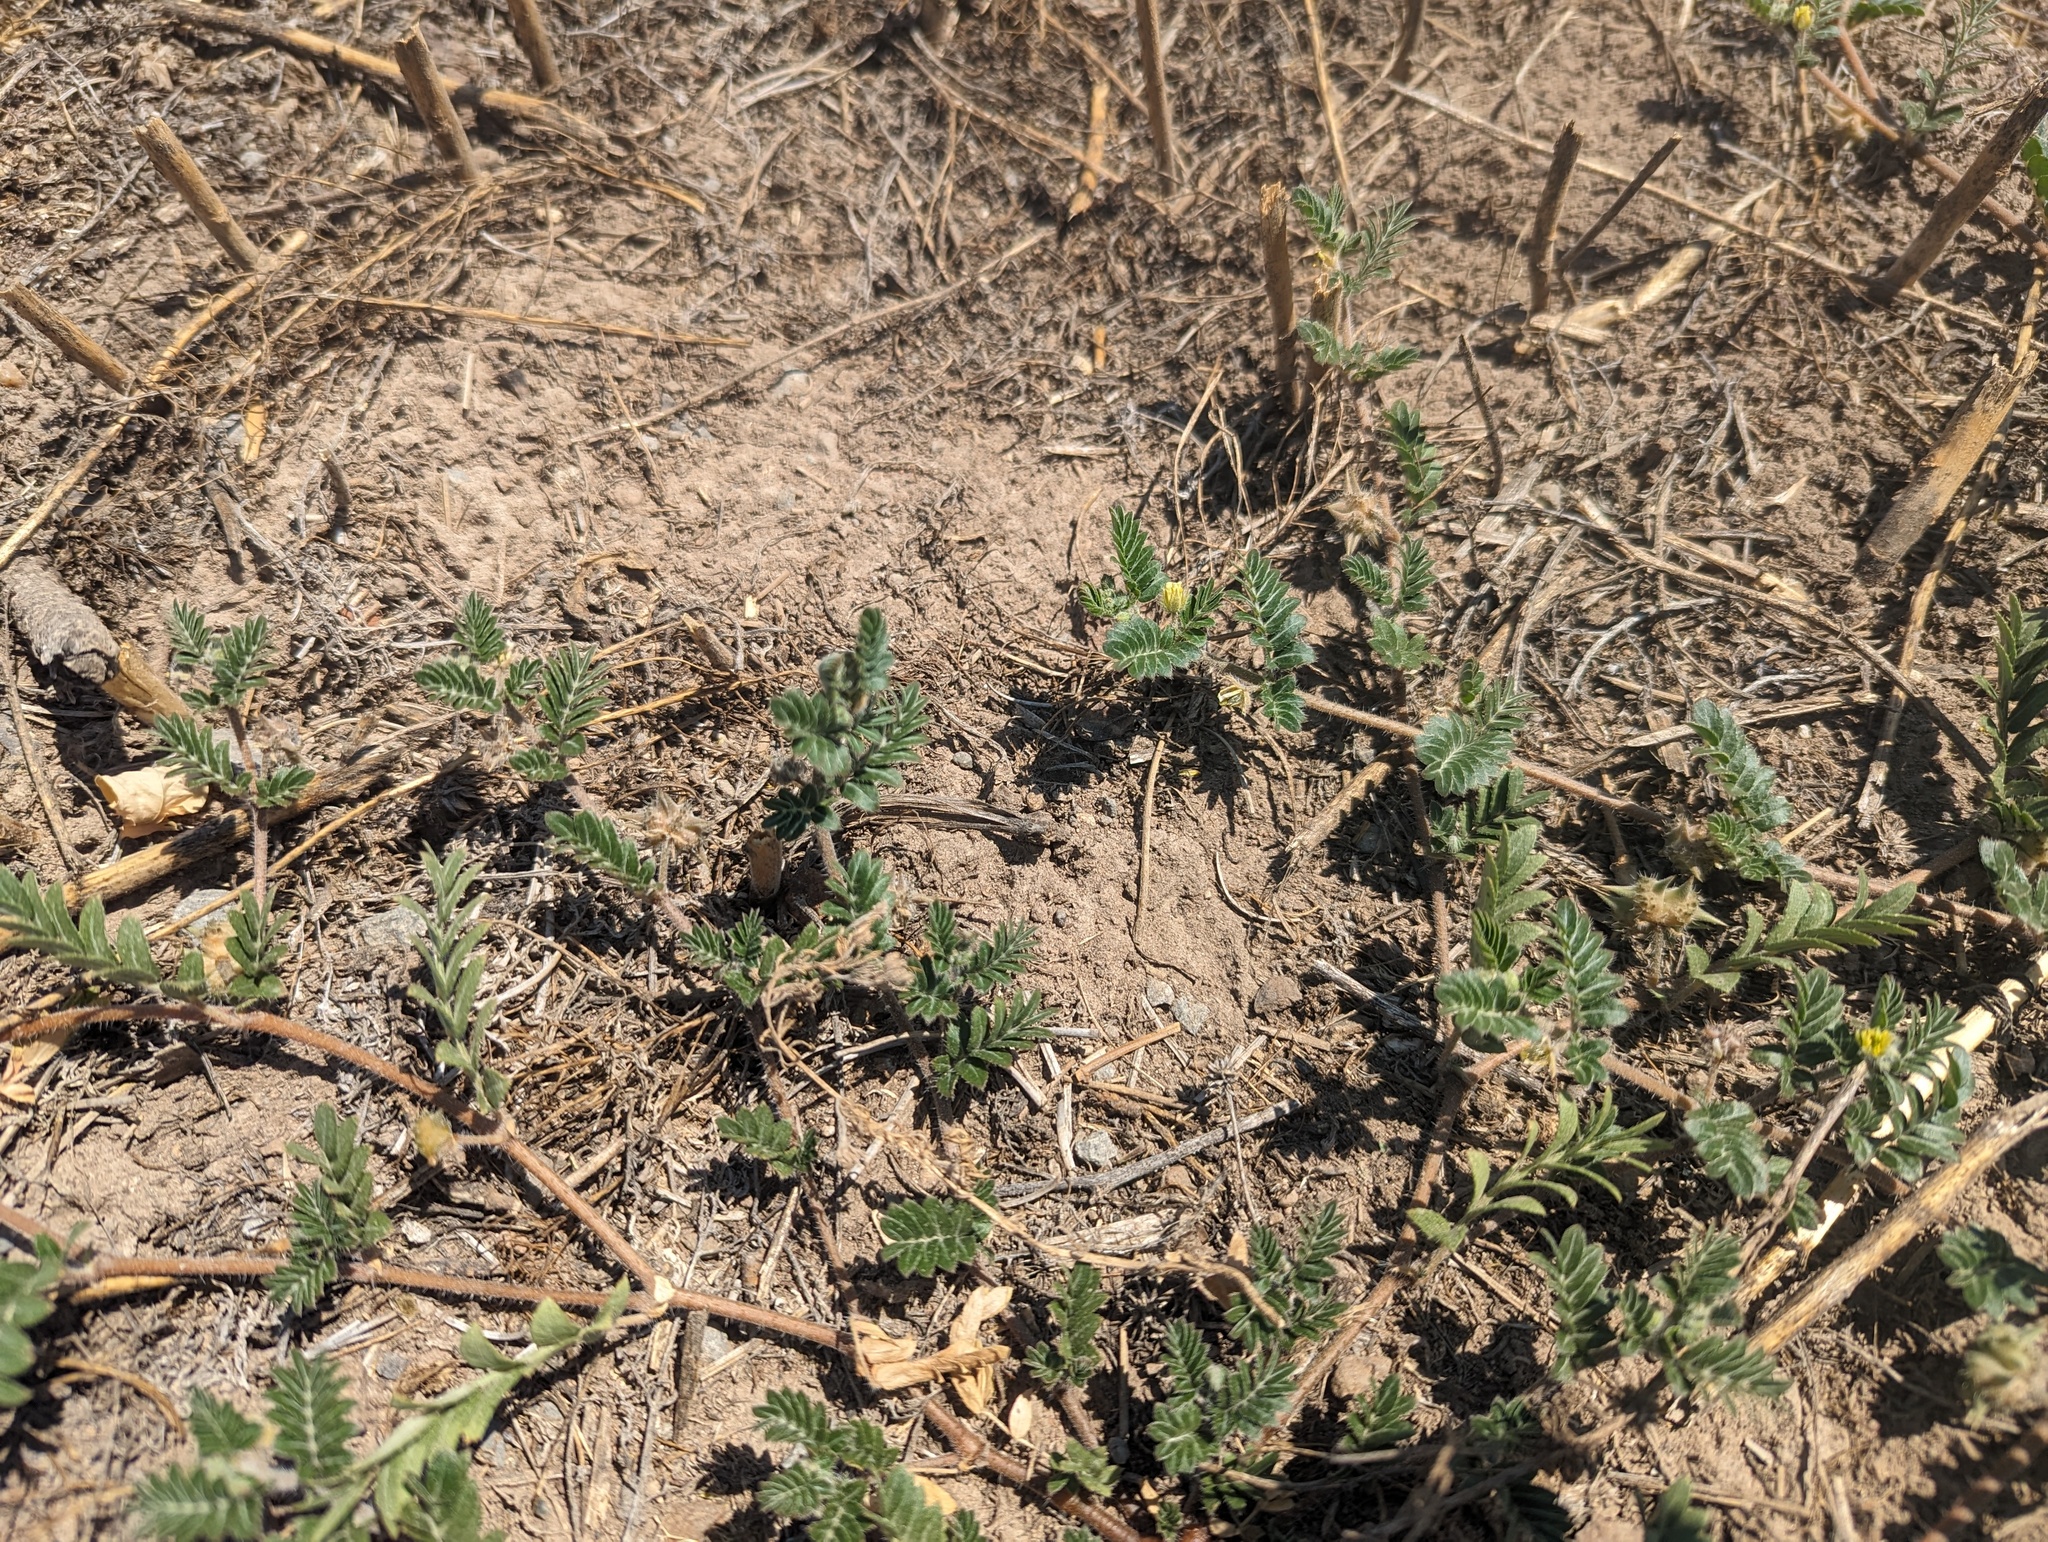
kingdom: Plantae
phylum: Tracheophyta
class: Magnoliopsida
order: Zygophyllales
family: Zygophyllaceae
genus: Tribulus
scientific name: Tribulus terrestris
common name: Puncturevine
